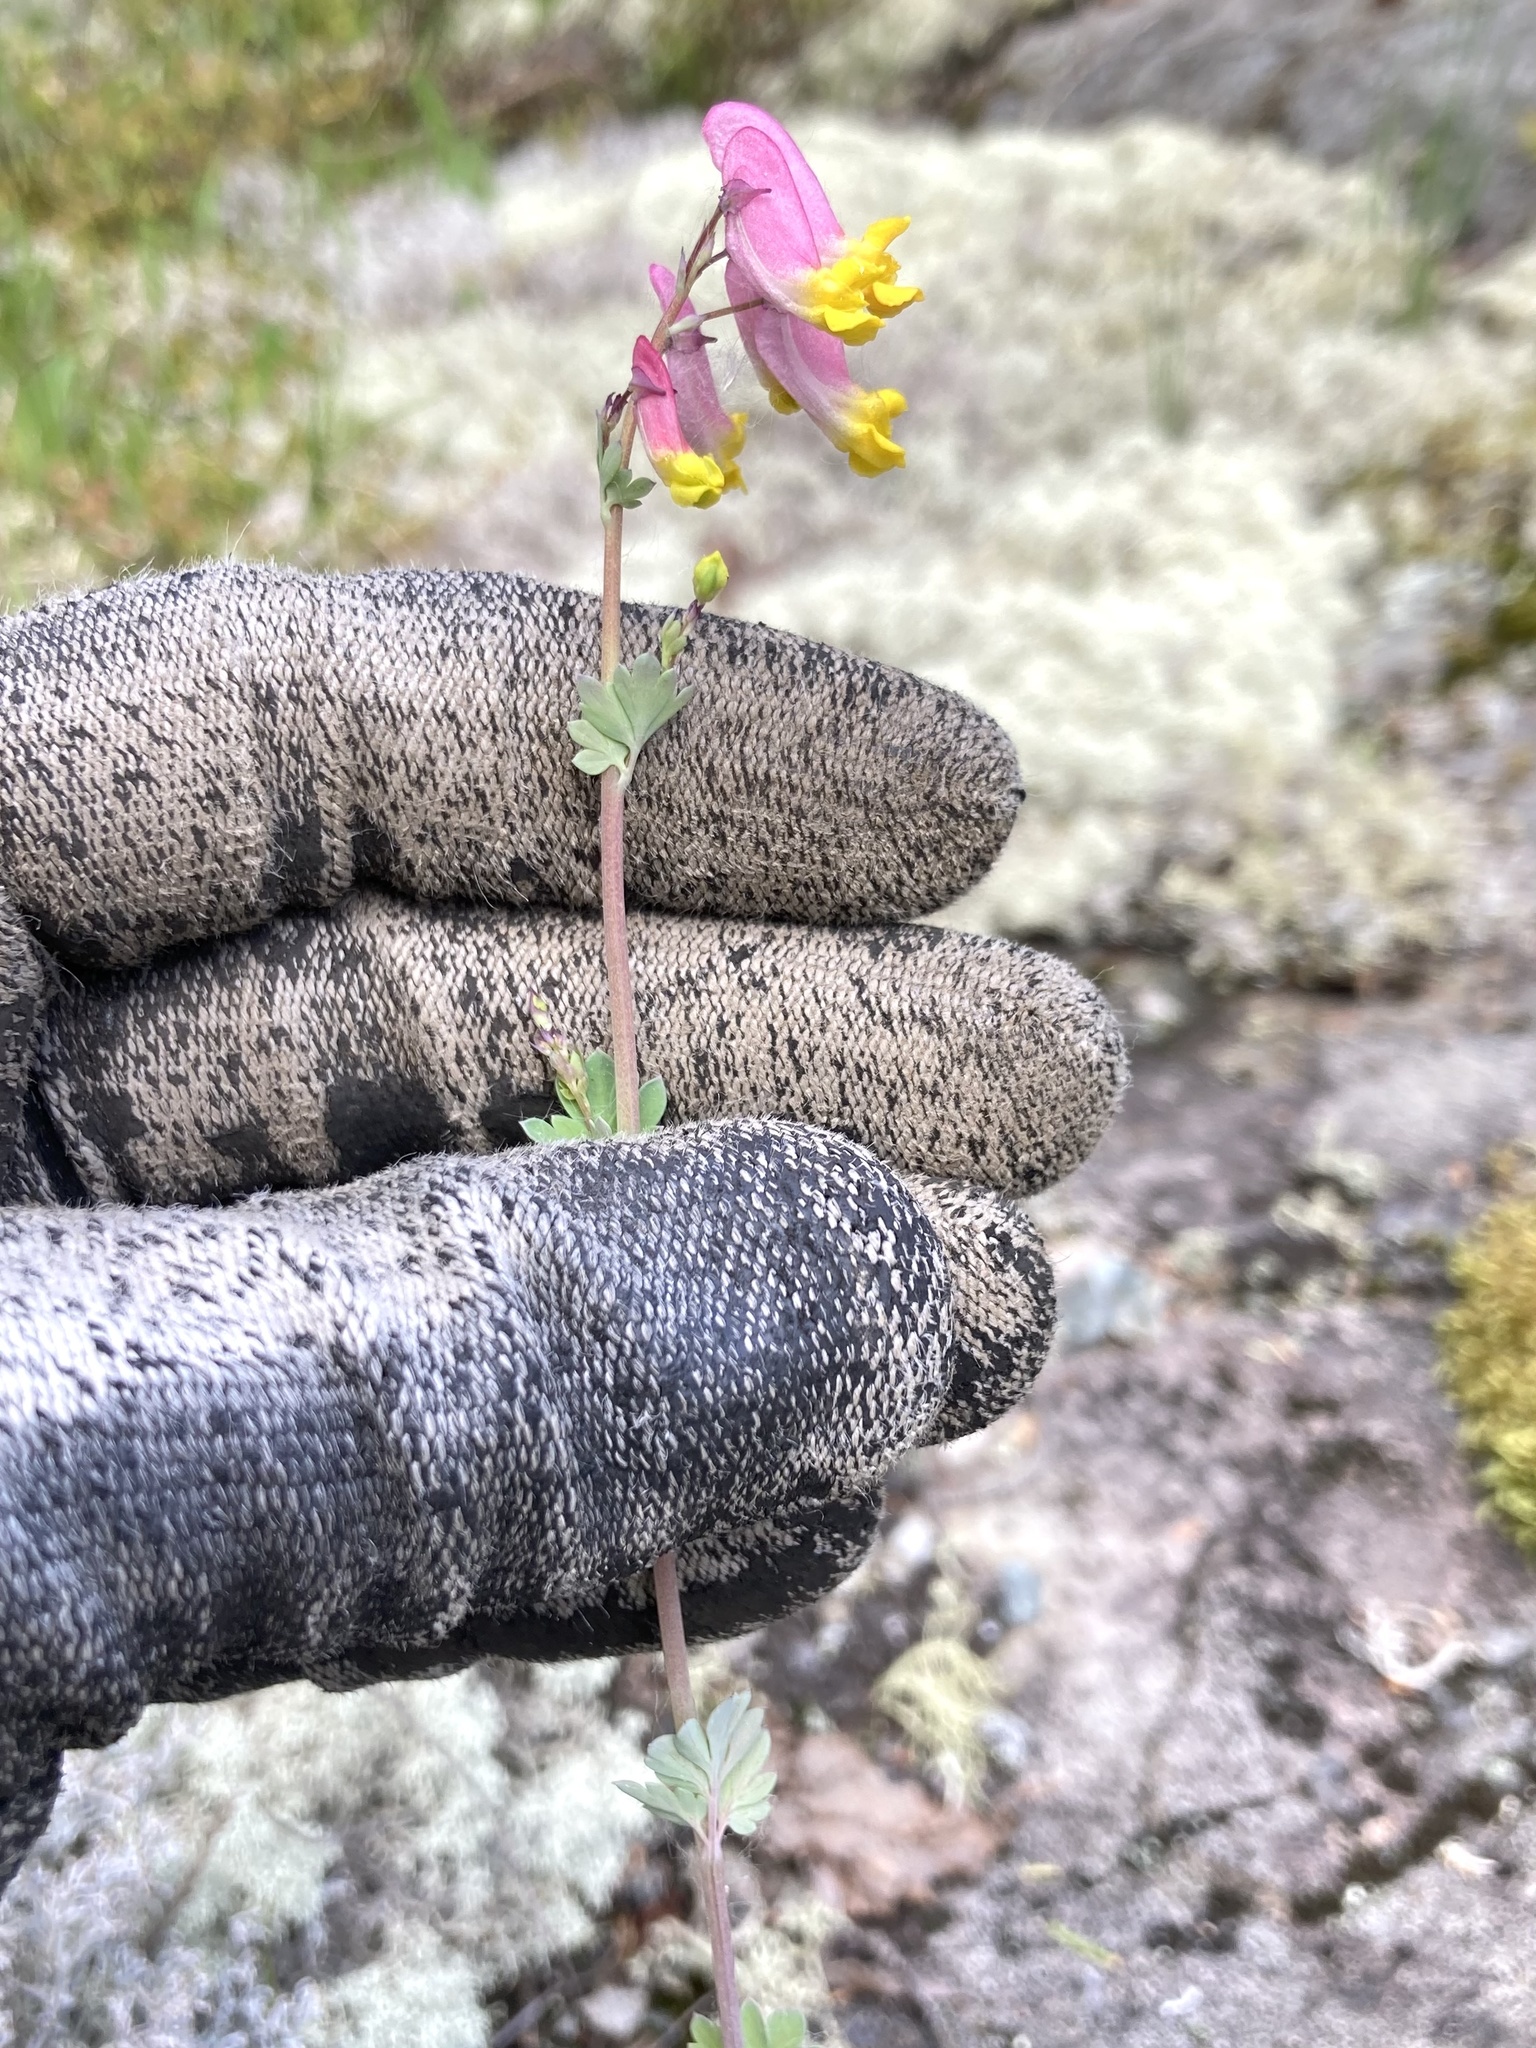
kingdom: Plantae
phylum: Tracheophyta
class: Magnoliopsida
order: Ranunculales
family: Papaveraceae
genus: Capnoides
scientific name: Capnoides sempervirens
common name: Rock harlequin
